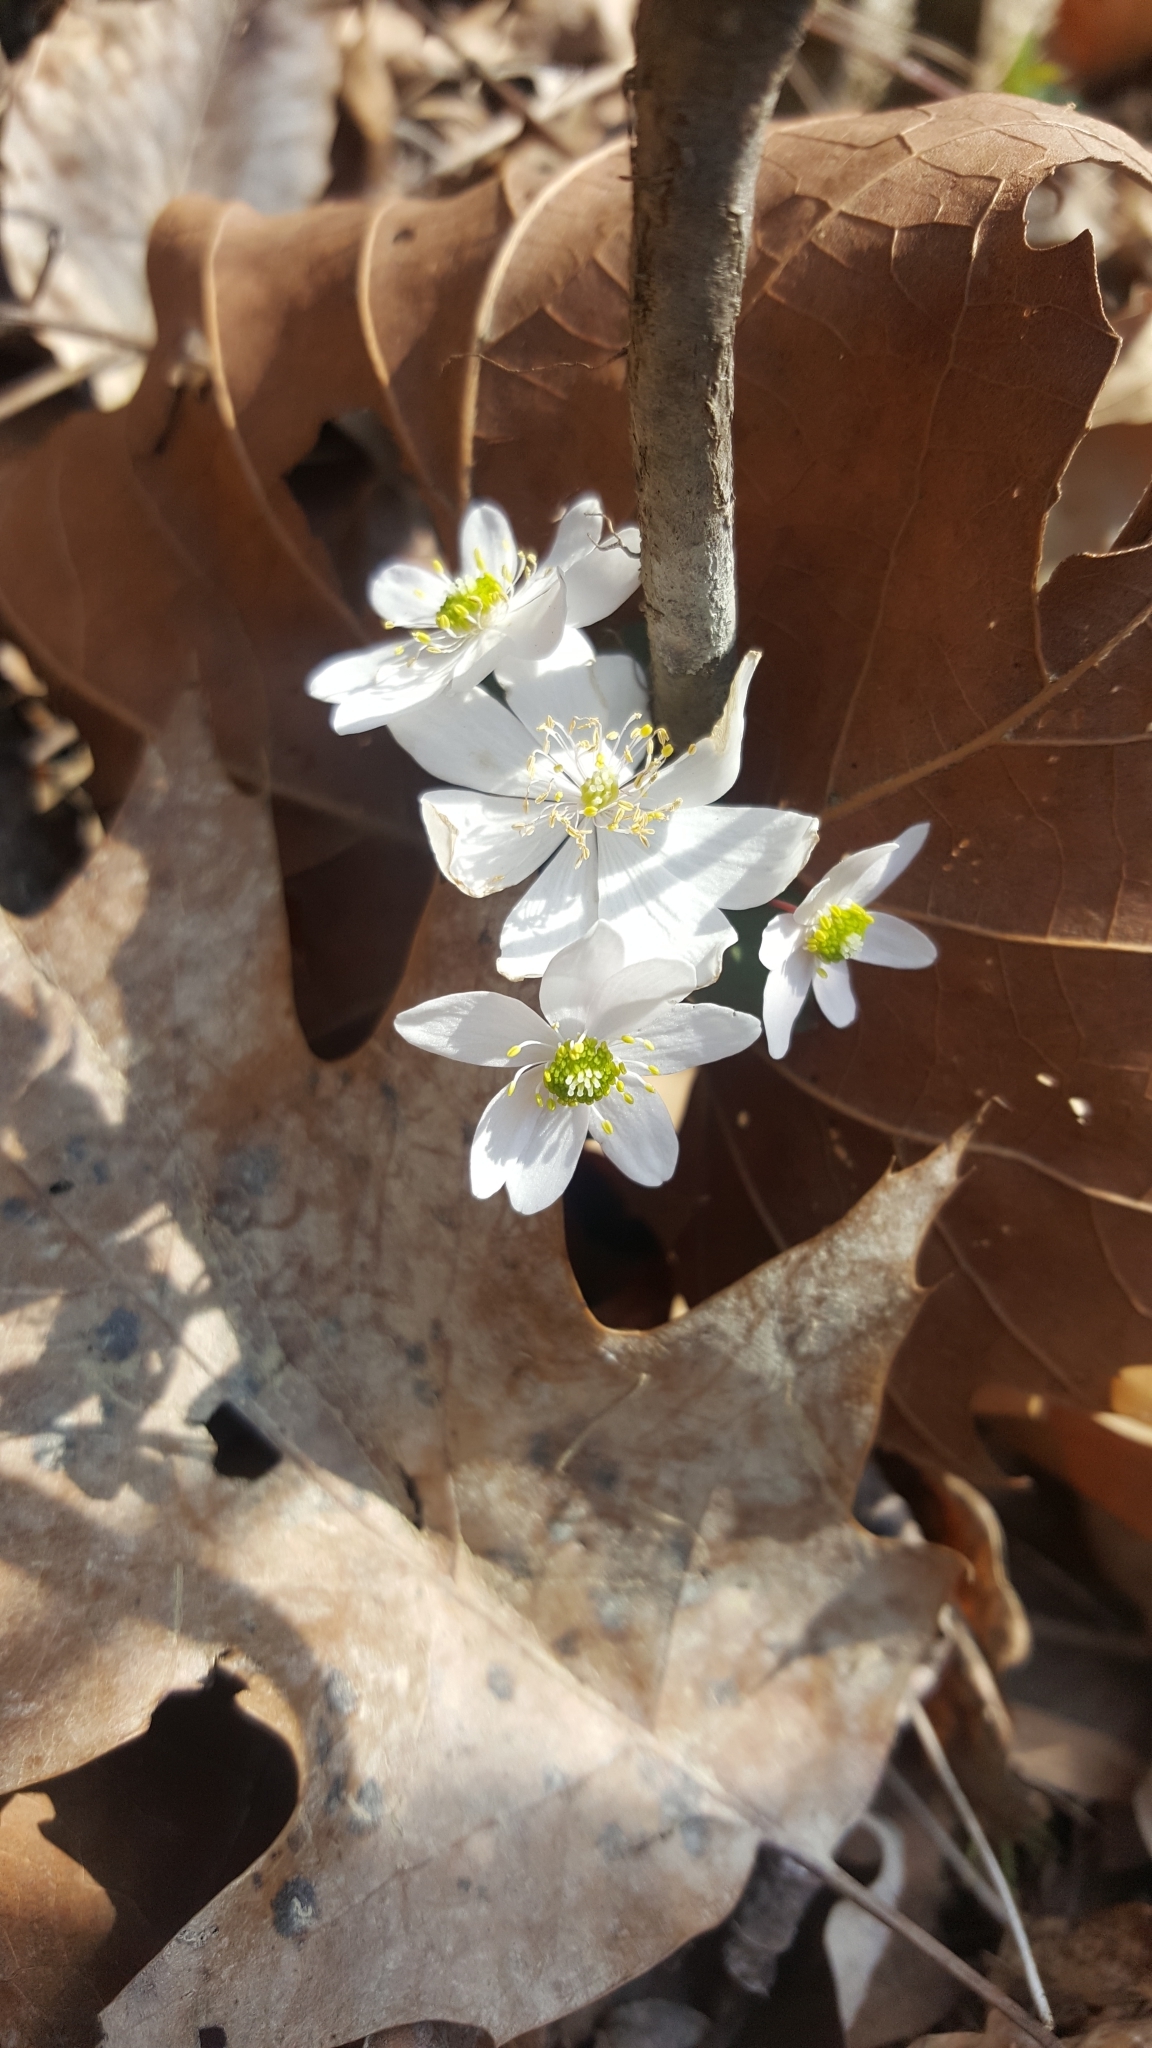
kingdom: Plantae
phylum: Tracheophyta
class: Magnoliopsida
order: Ranunculales
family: Ranunculaceae
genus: Thalictrum
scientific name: Thalictrum thalictroides
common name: Rue-anemone
